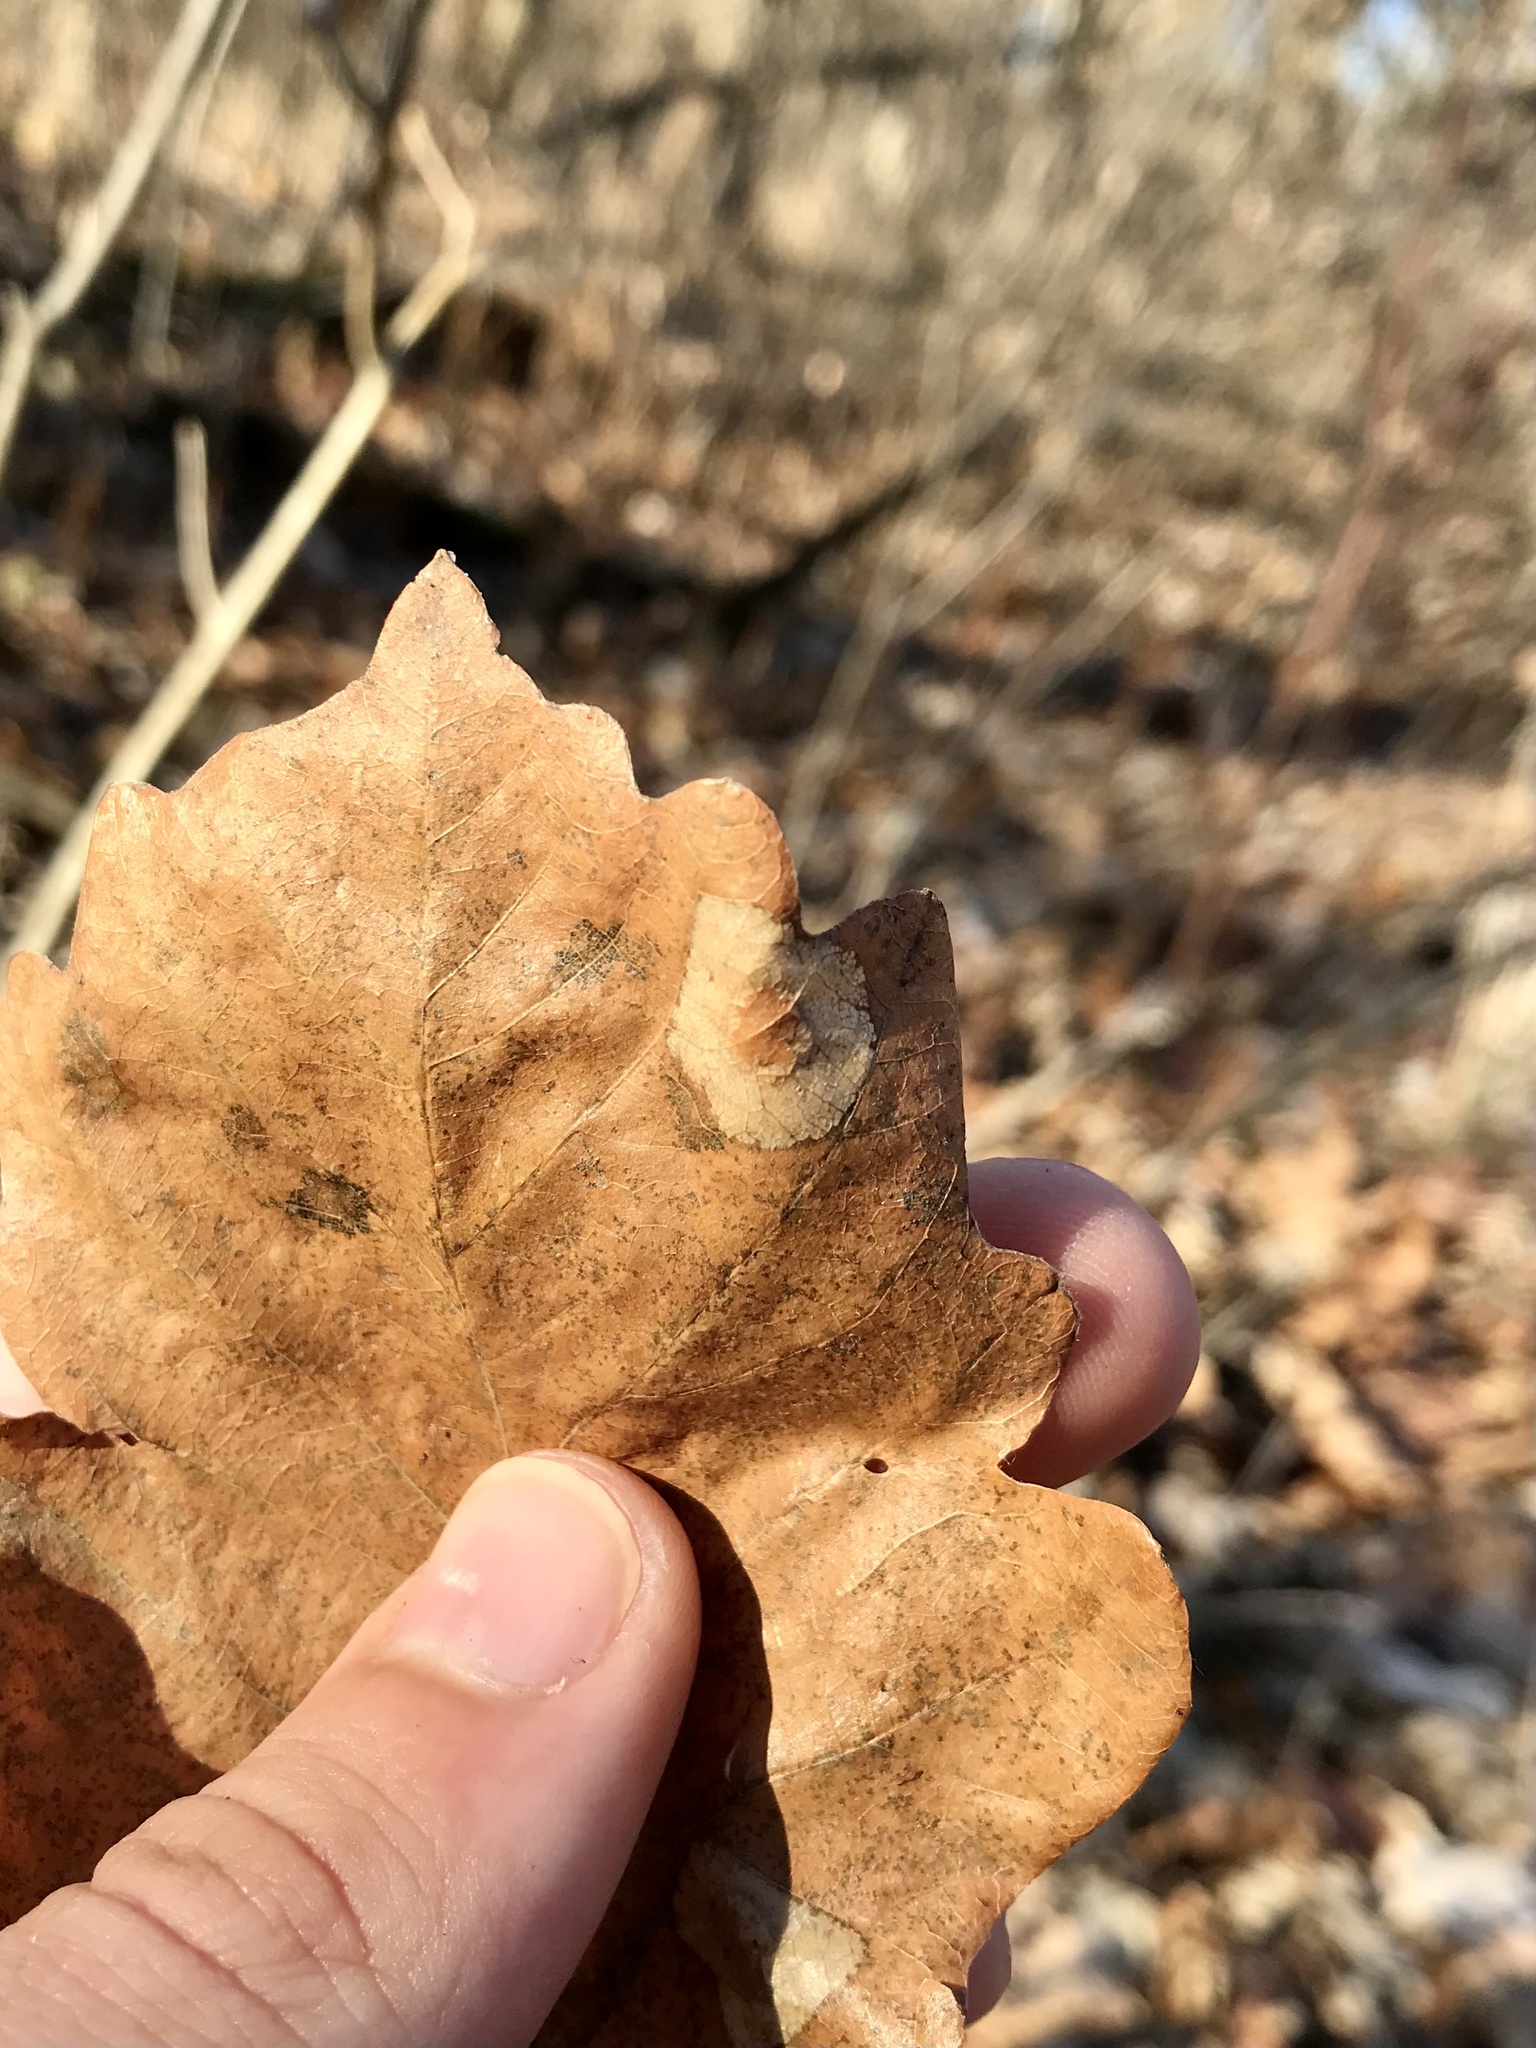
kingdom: Animalia
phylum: Arthropoda
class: Insecta
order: Lepidoptera
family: Gracillariidae
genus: Phyllonorycter
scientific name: Phyllonorycter basistrigella
